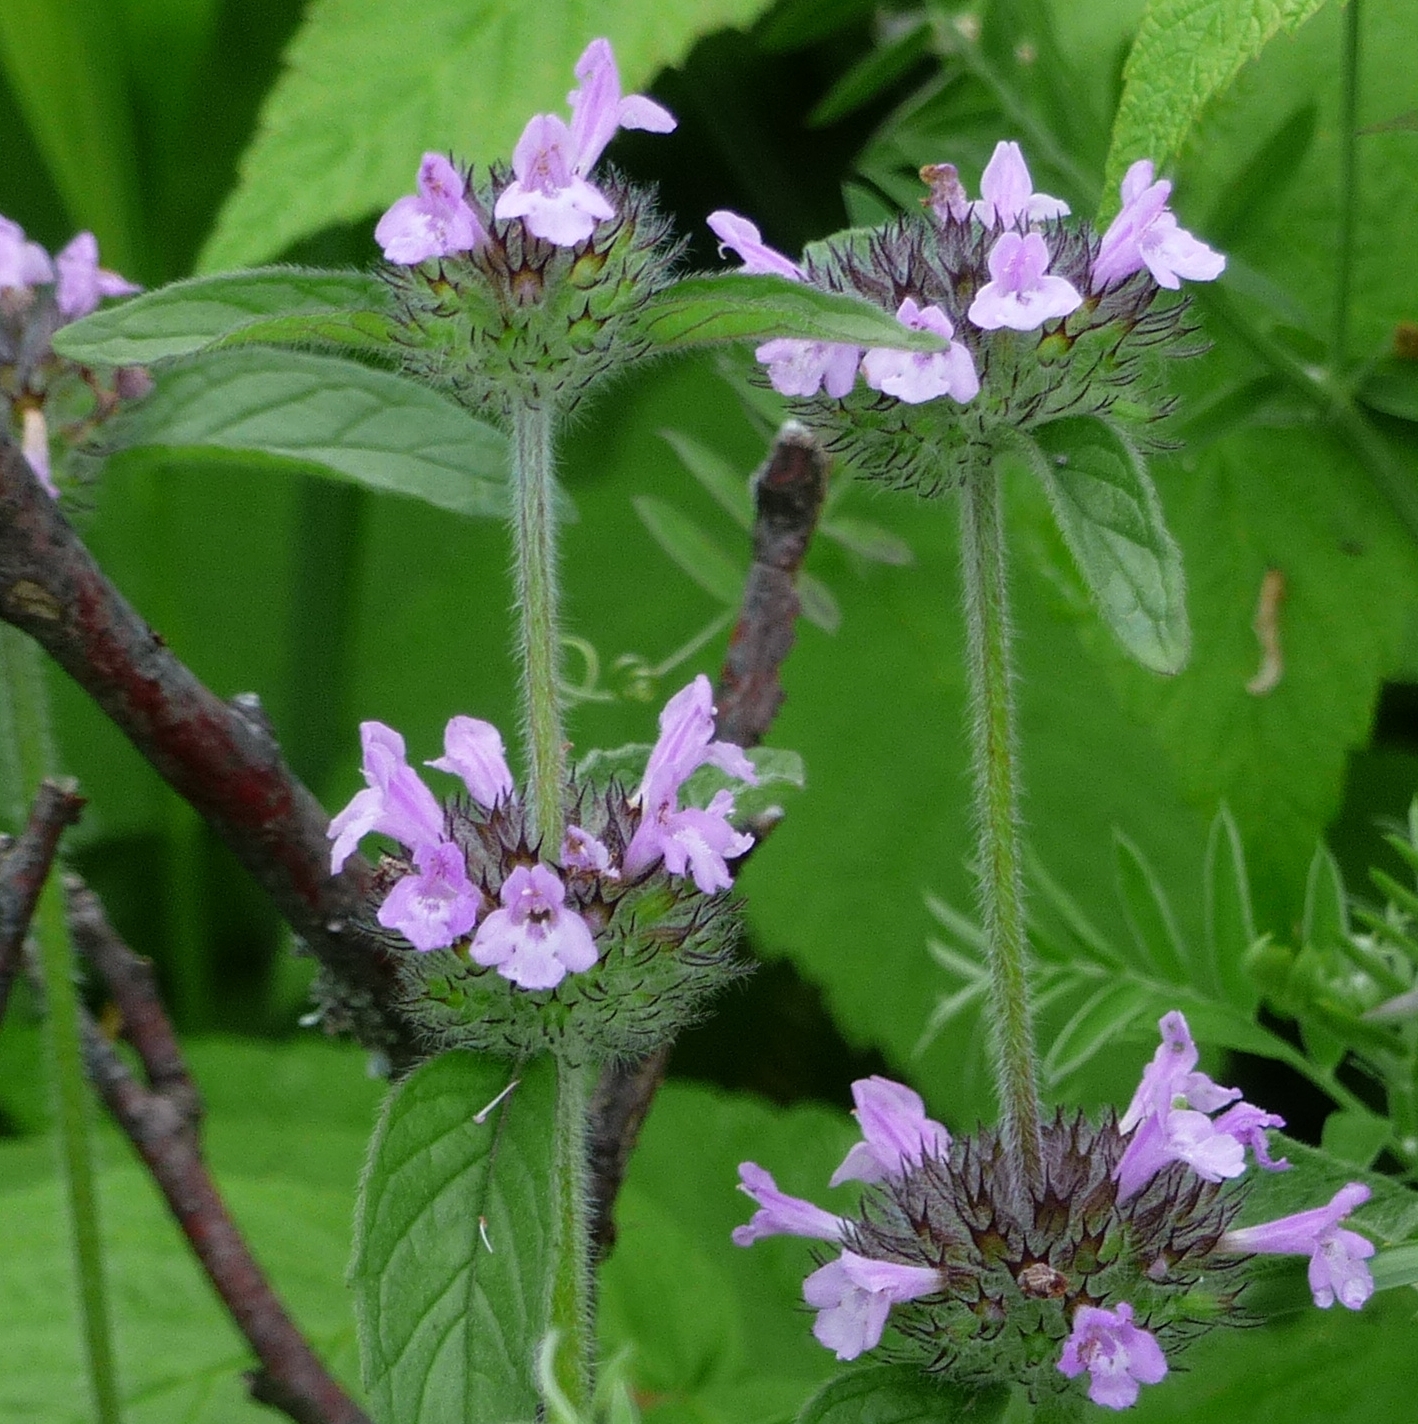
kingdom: Plantae
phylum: Tracheophyta
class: Magnoliopsida
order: Lamiales
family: Lamiaceae
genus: Clinopodium
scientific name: Clinopodium vulgare
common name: Wild basil
